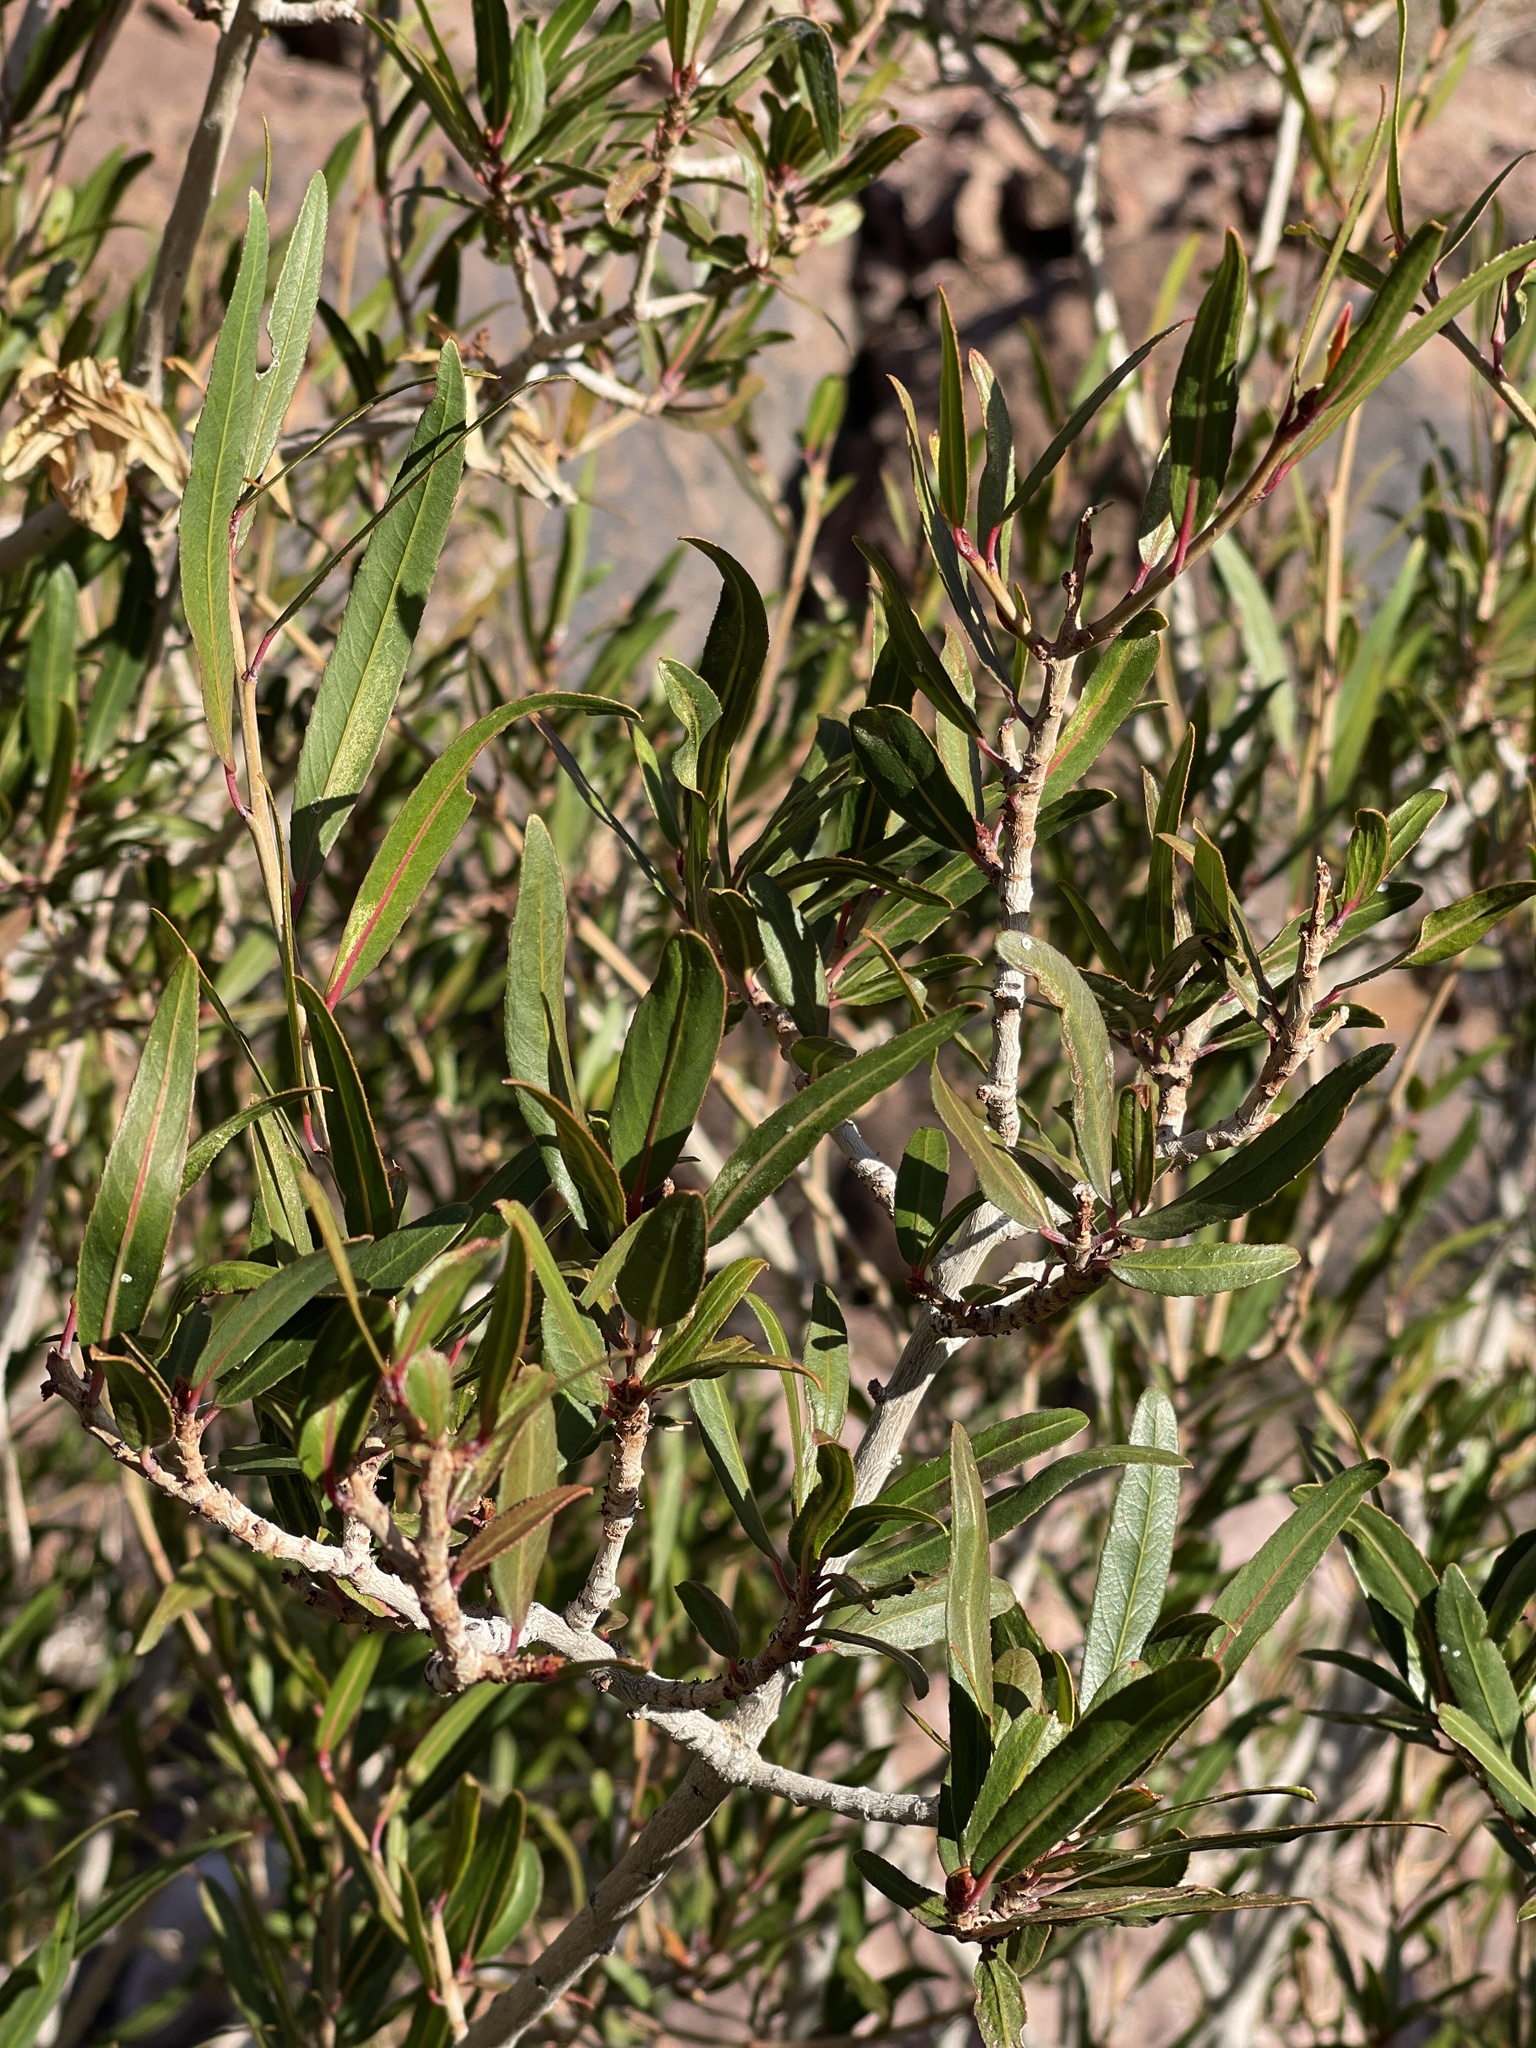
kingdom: Plantae
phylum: Tracheophyta
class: Magnoliopsida
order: Malpighiales
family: Euphorbiaceae
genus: Pleradenophora
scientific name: Pleradenophora bilocularis
